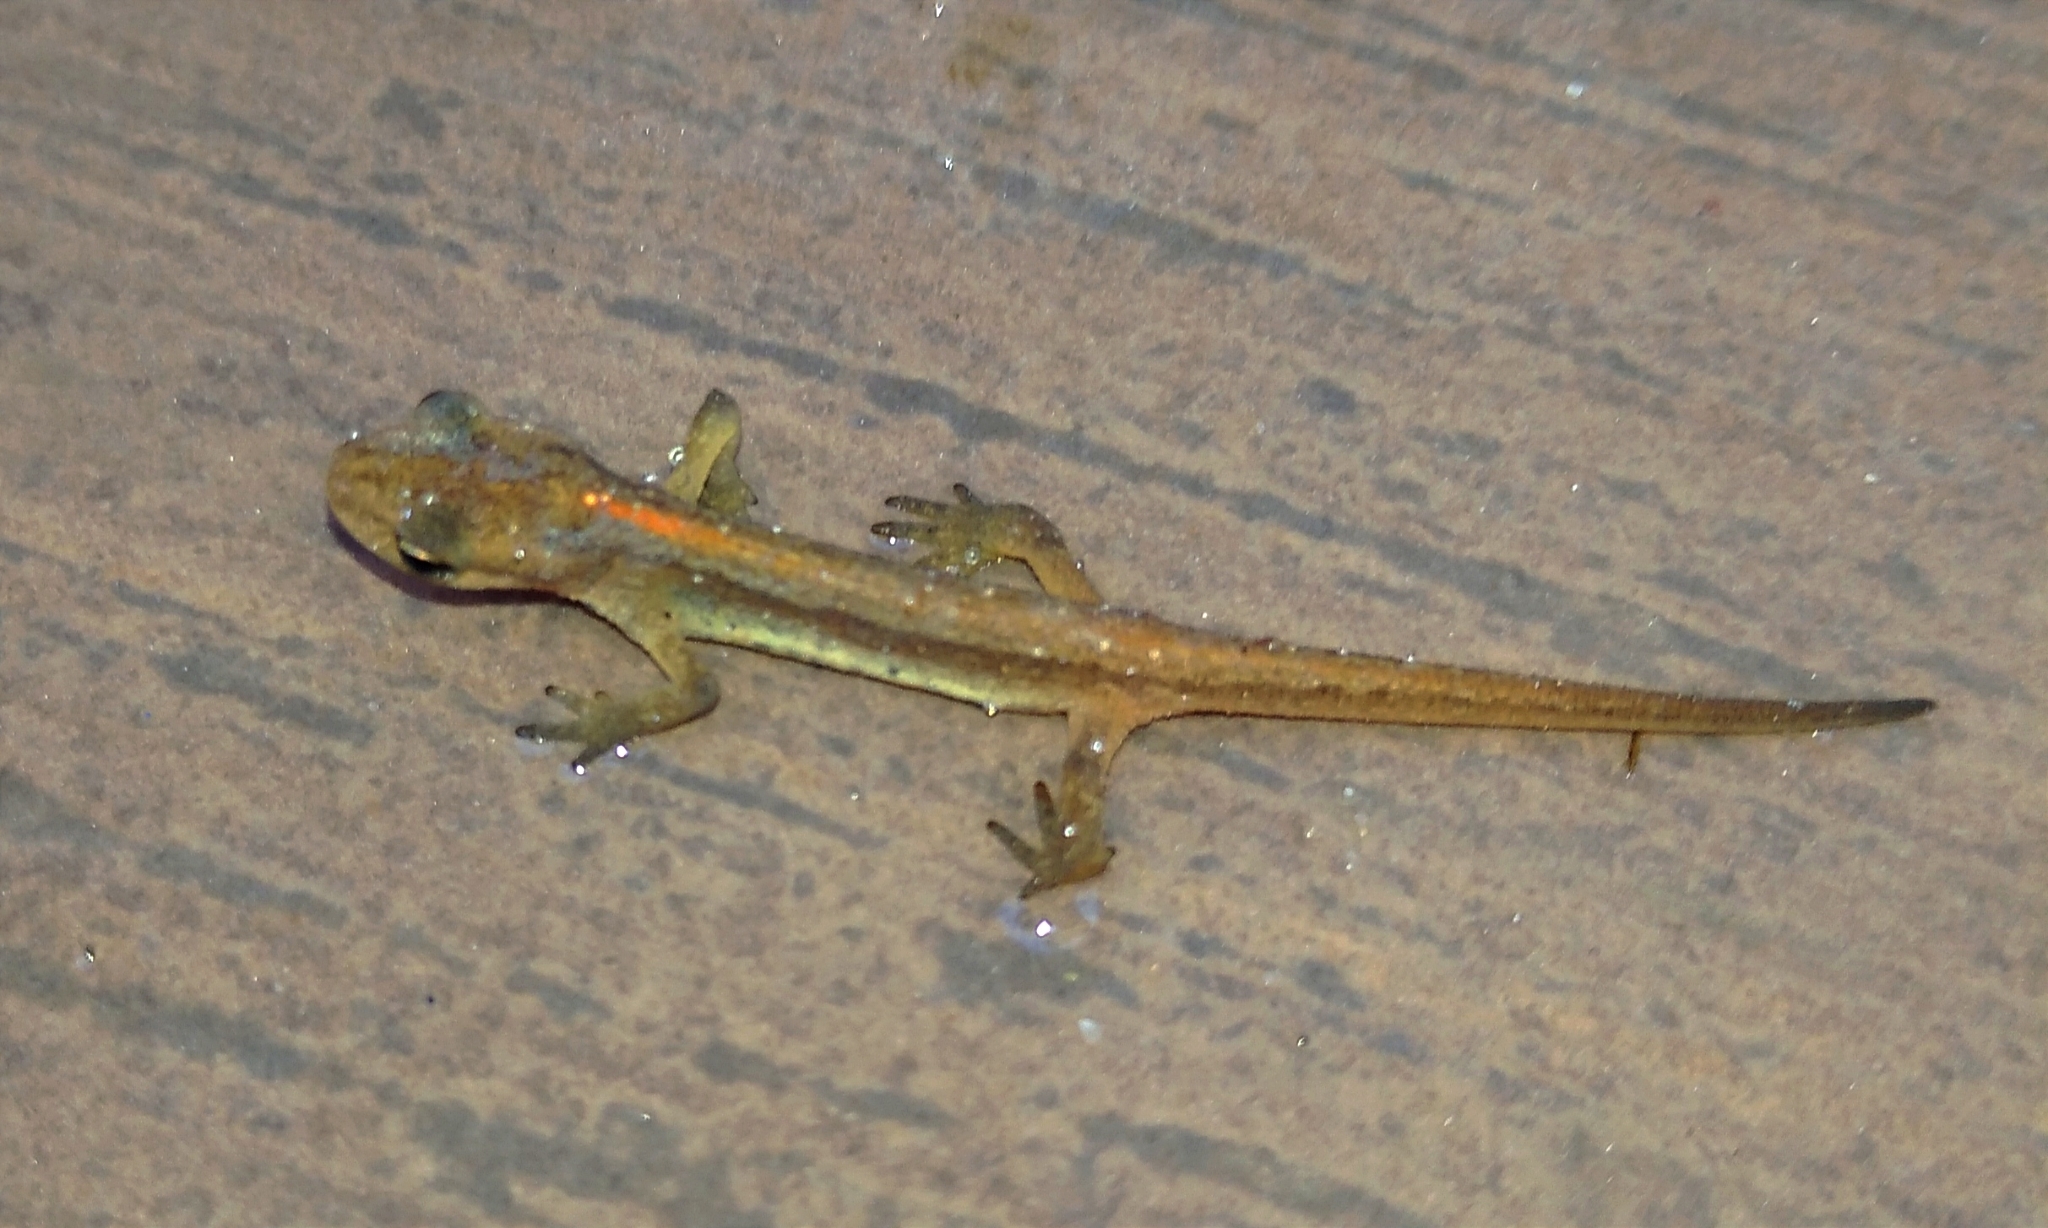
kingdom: Animalia
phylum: Chordata
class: Amphibia
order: Caudata
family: Salamandridae
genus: Lissotriton
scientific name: Lissotriton schmidtleri
